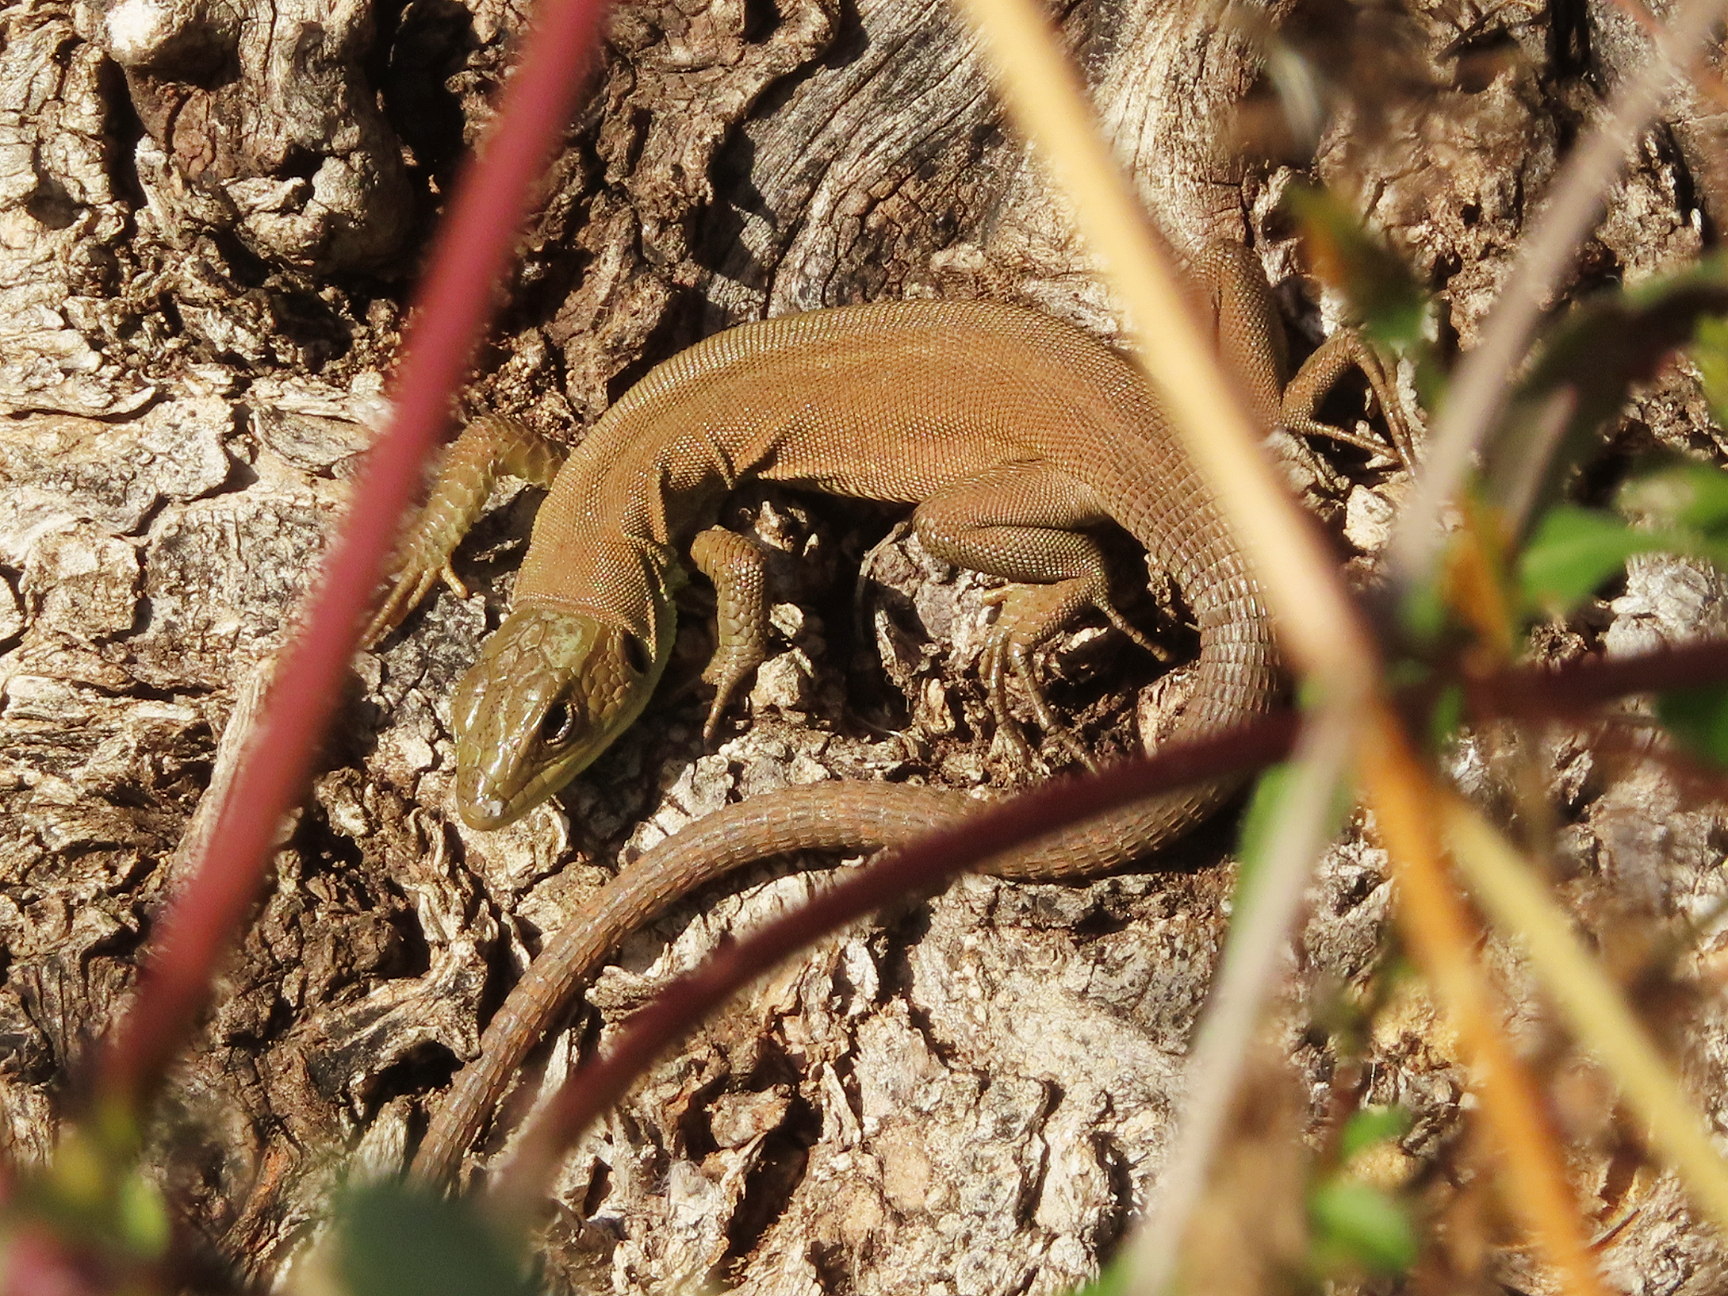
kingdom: Animalia
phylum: Chordata
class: Squamata
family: Lacertidae
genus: Lacerta
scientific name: Lacerta trilineata
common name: Balkan green lizard
